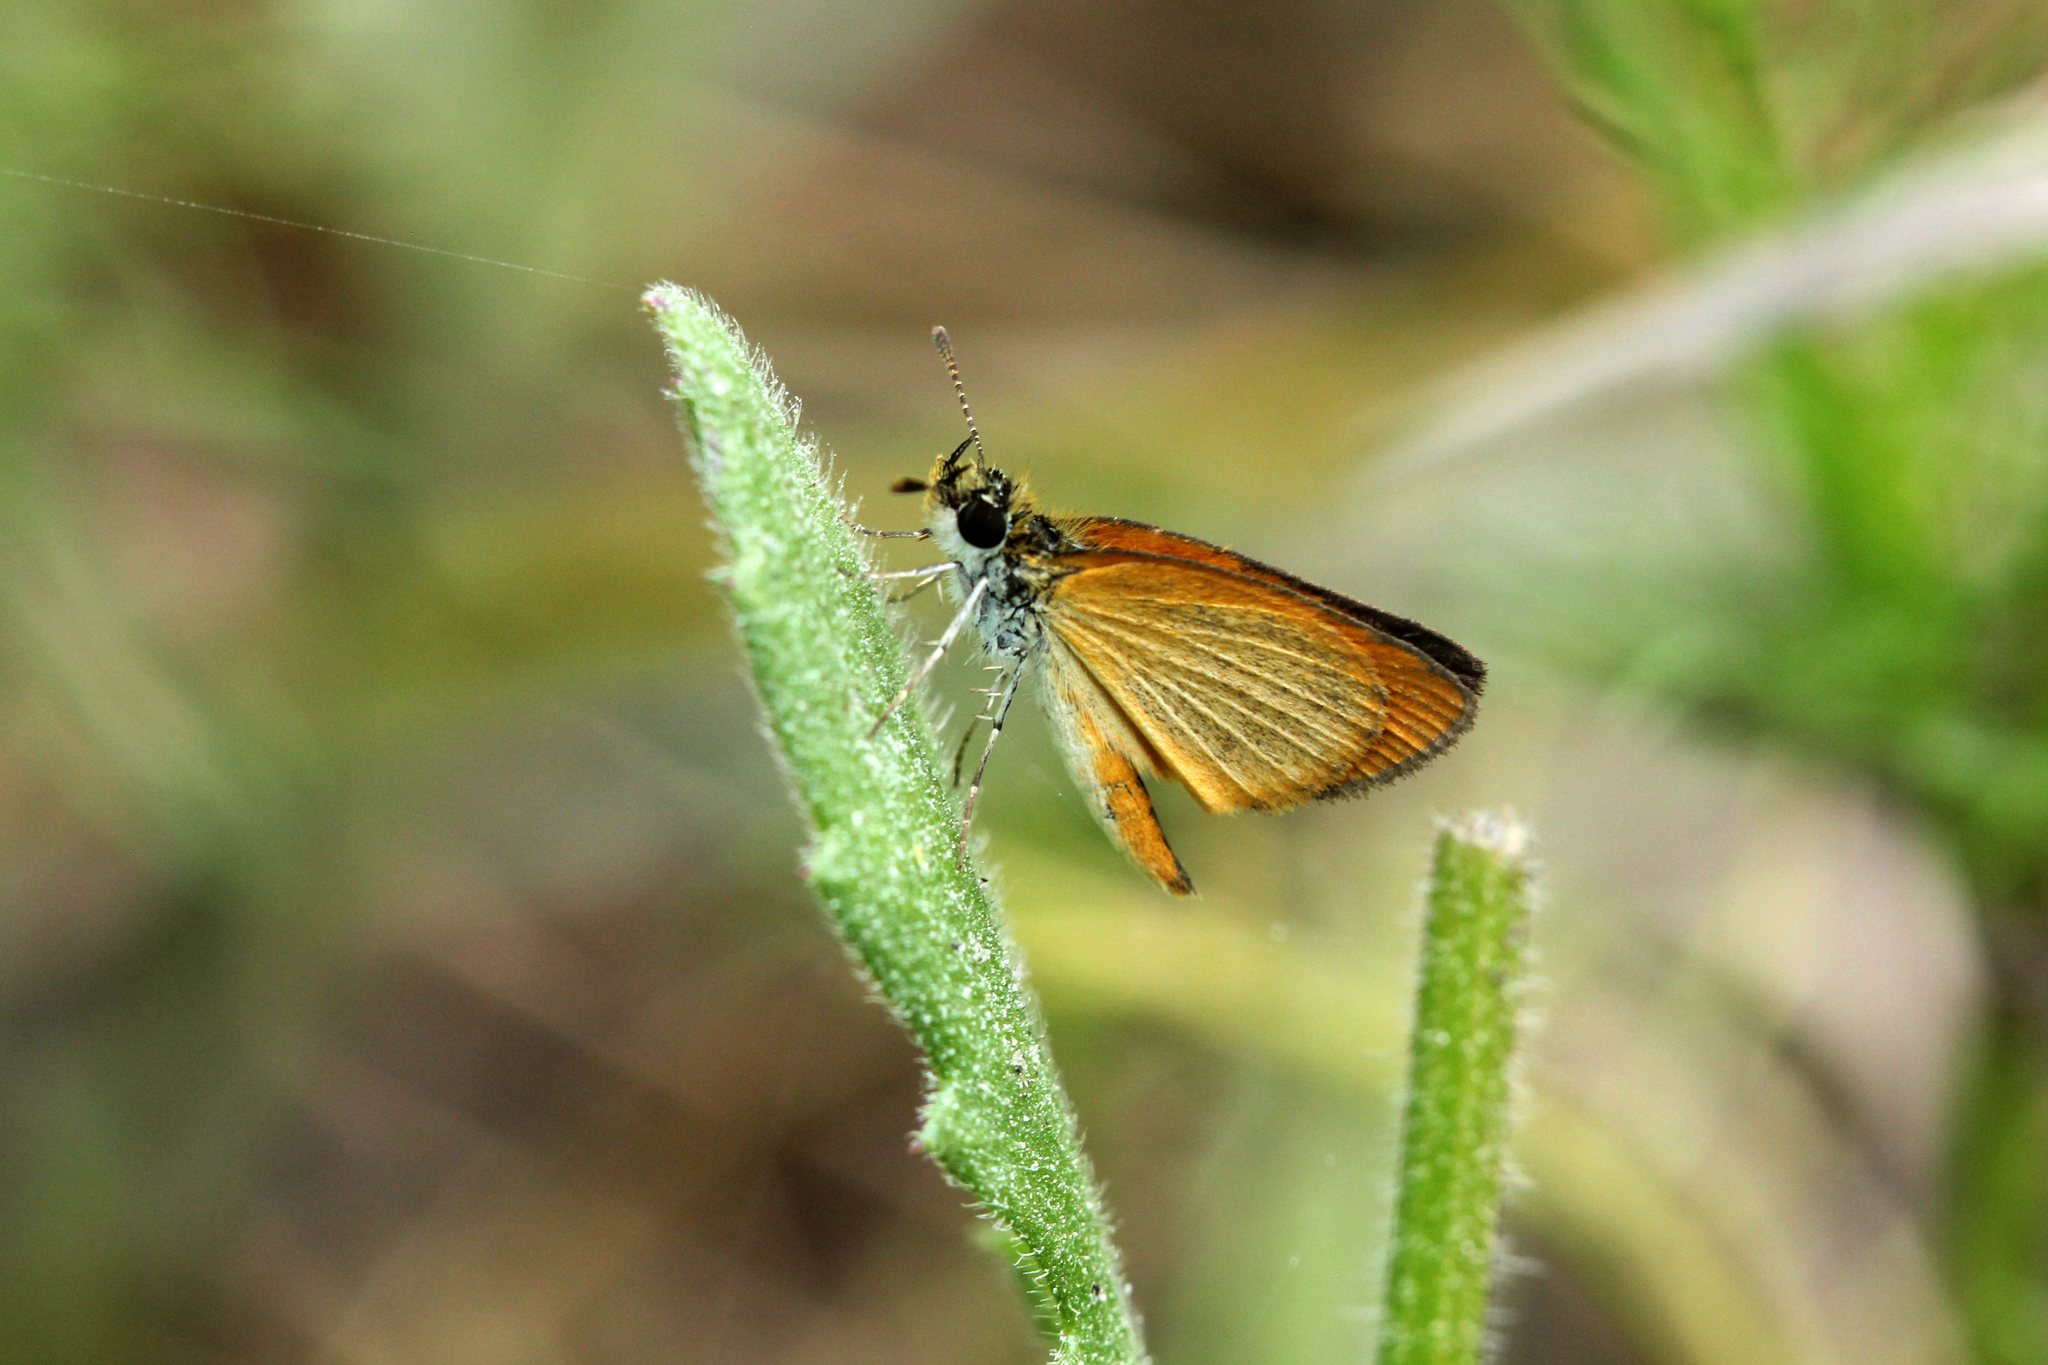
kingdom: Animalia
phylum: Arthropoda
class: Insecta
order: Lepidoptera
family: Hesperiidae
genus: Ancyloxypha
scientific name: Ancyloxypha numitor
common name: Least skipper
